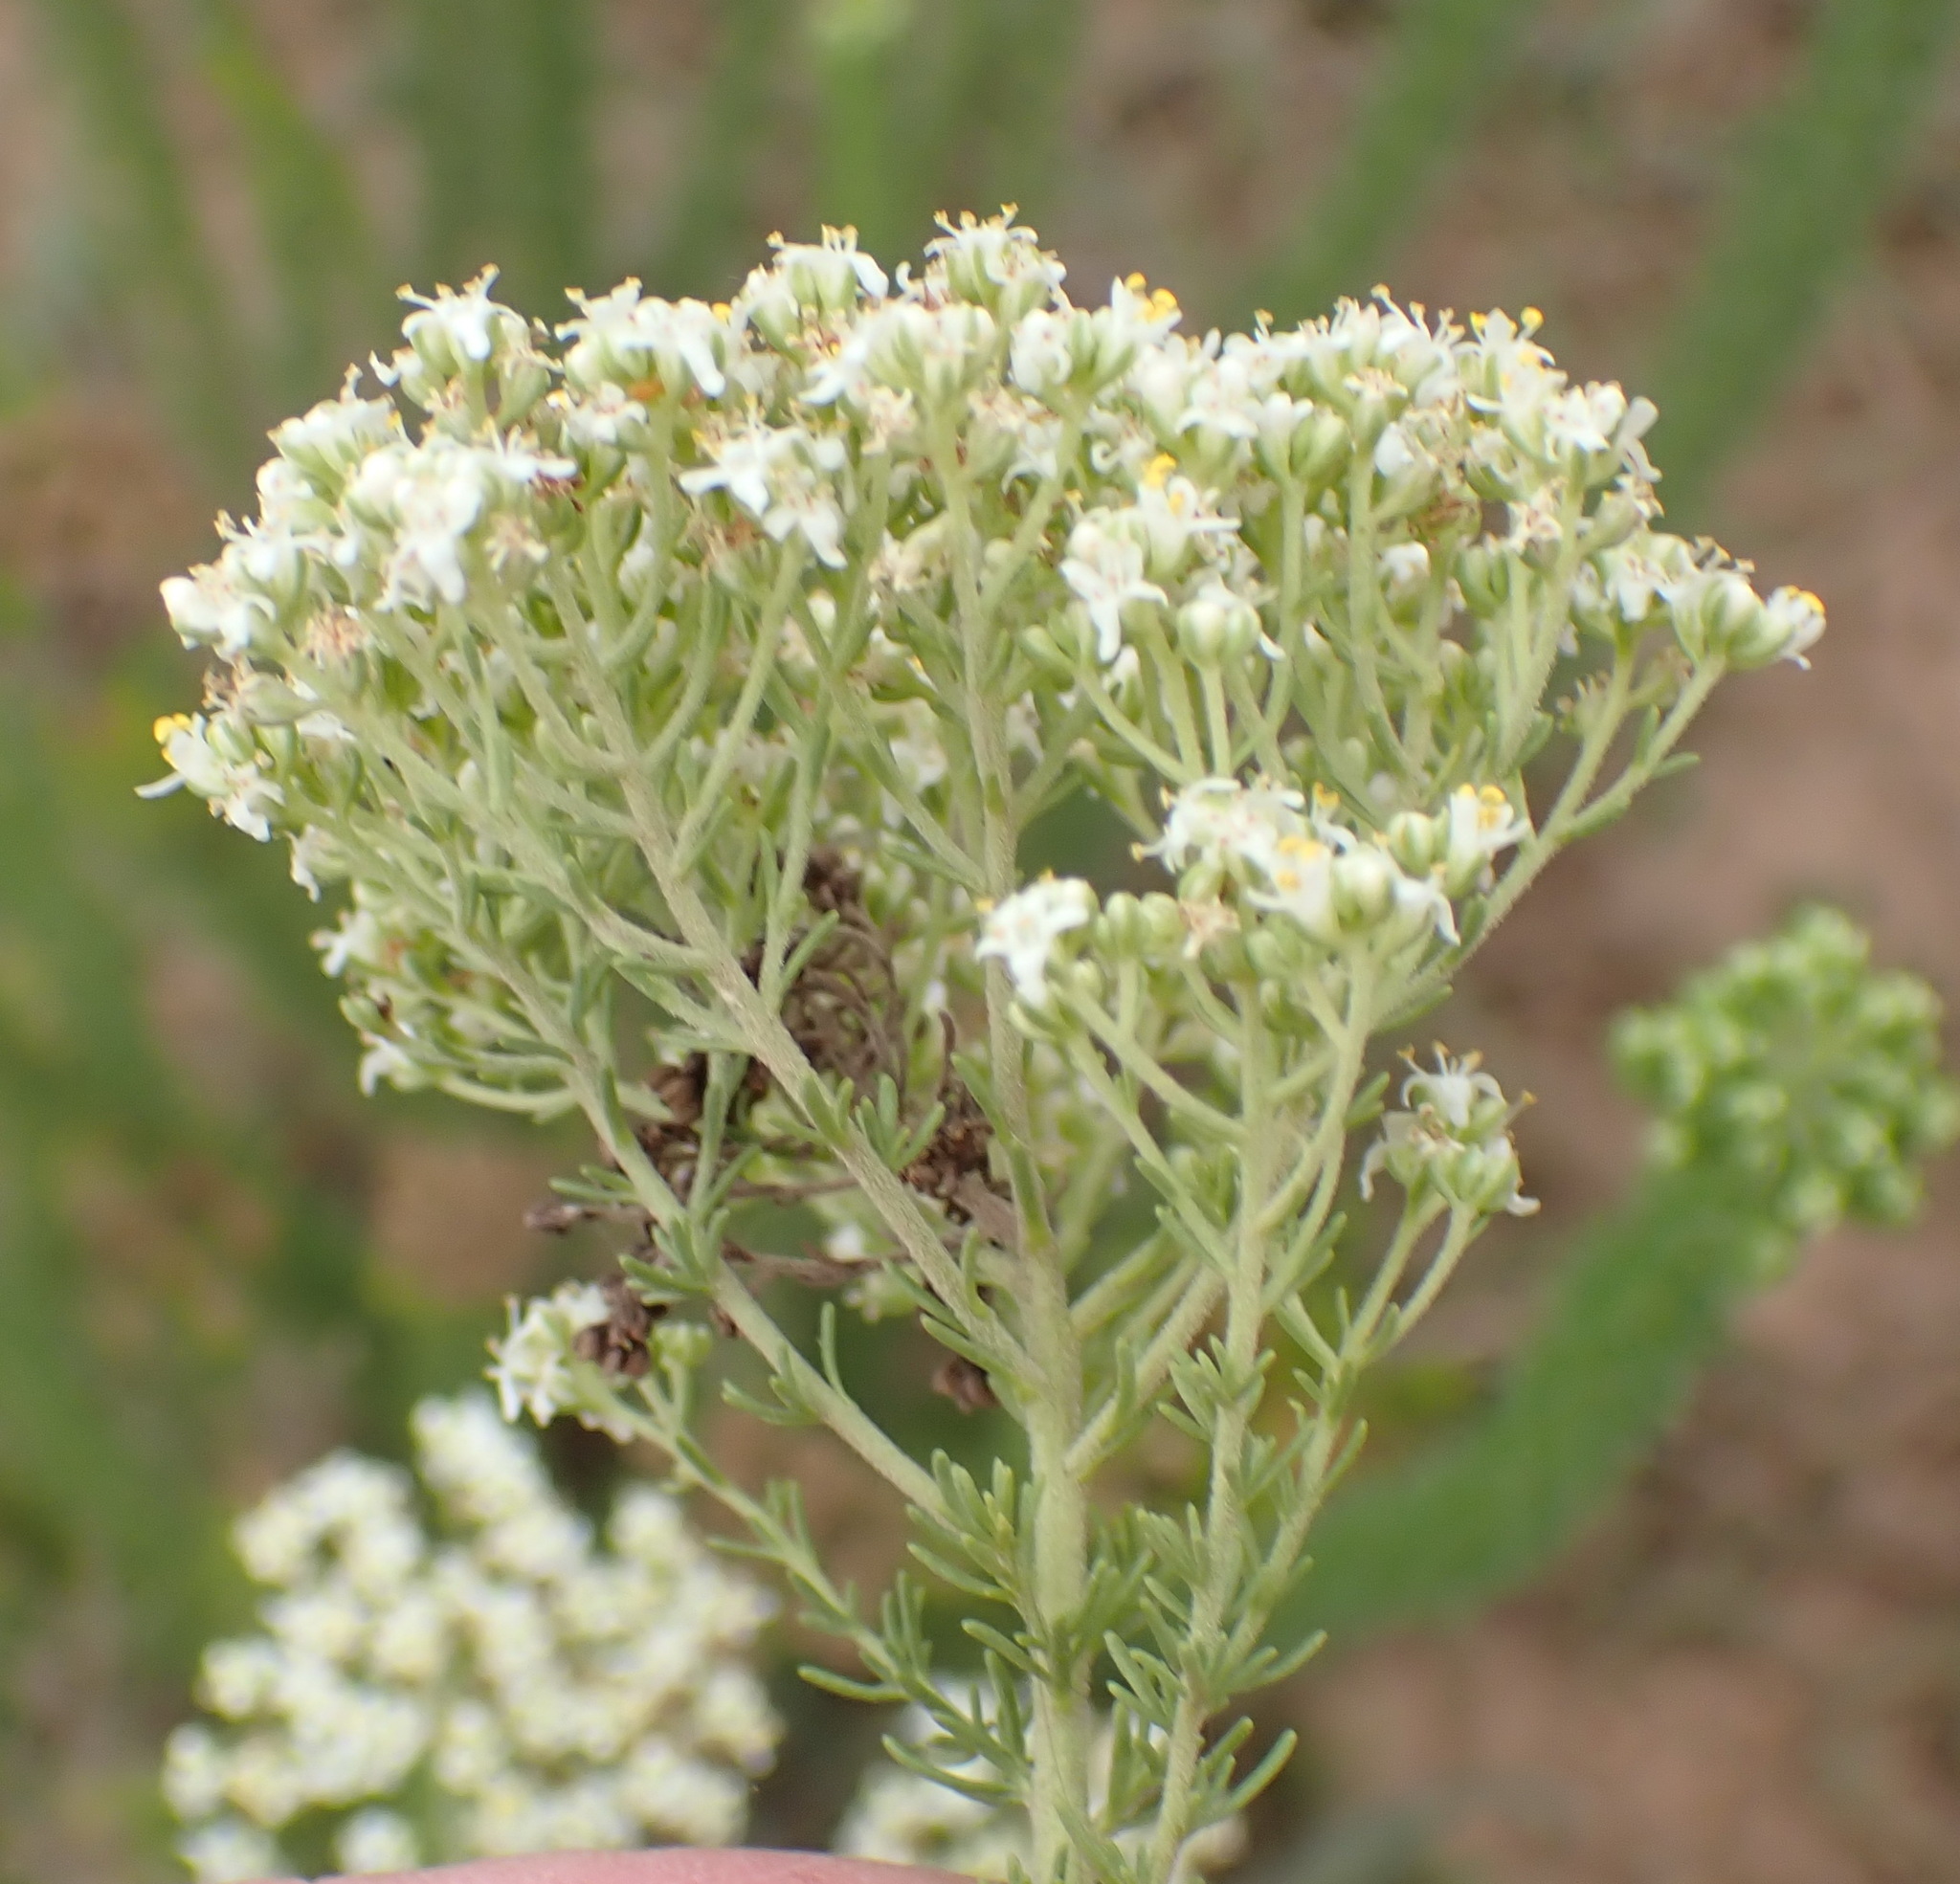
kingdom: Plantae
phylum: Tracheophyta
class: Magnoliopsida
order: Lamiales
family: Scrophulariaceae
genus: Selago
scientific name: Selago dolosa
